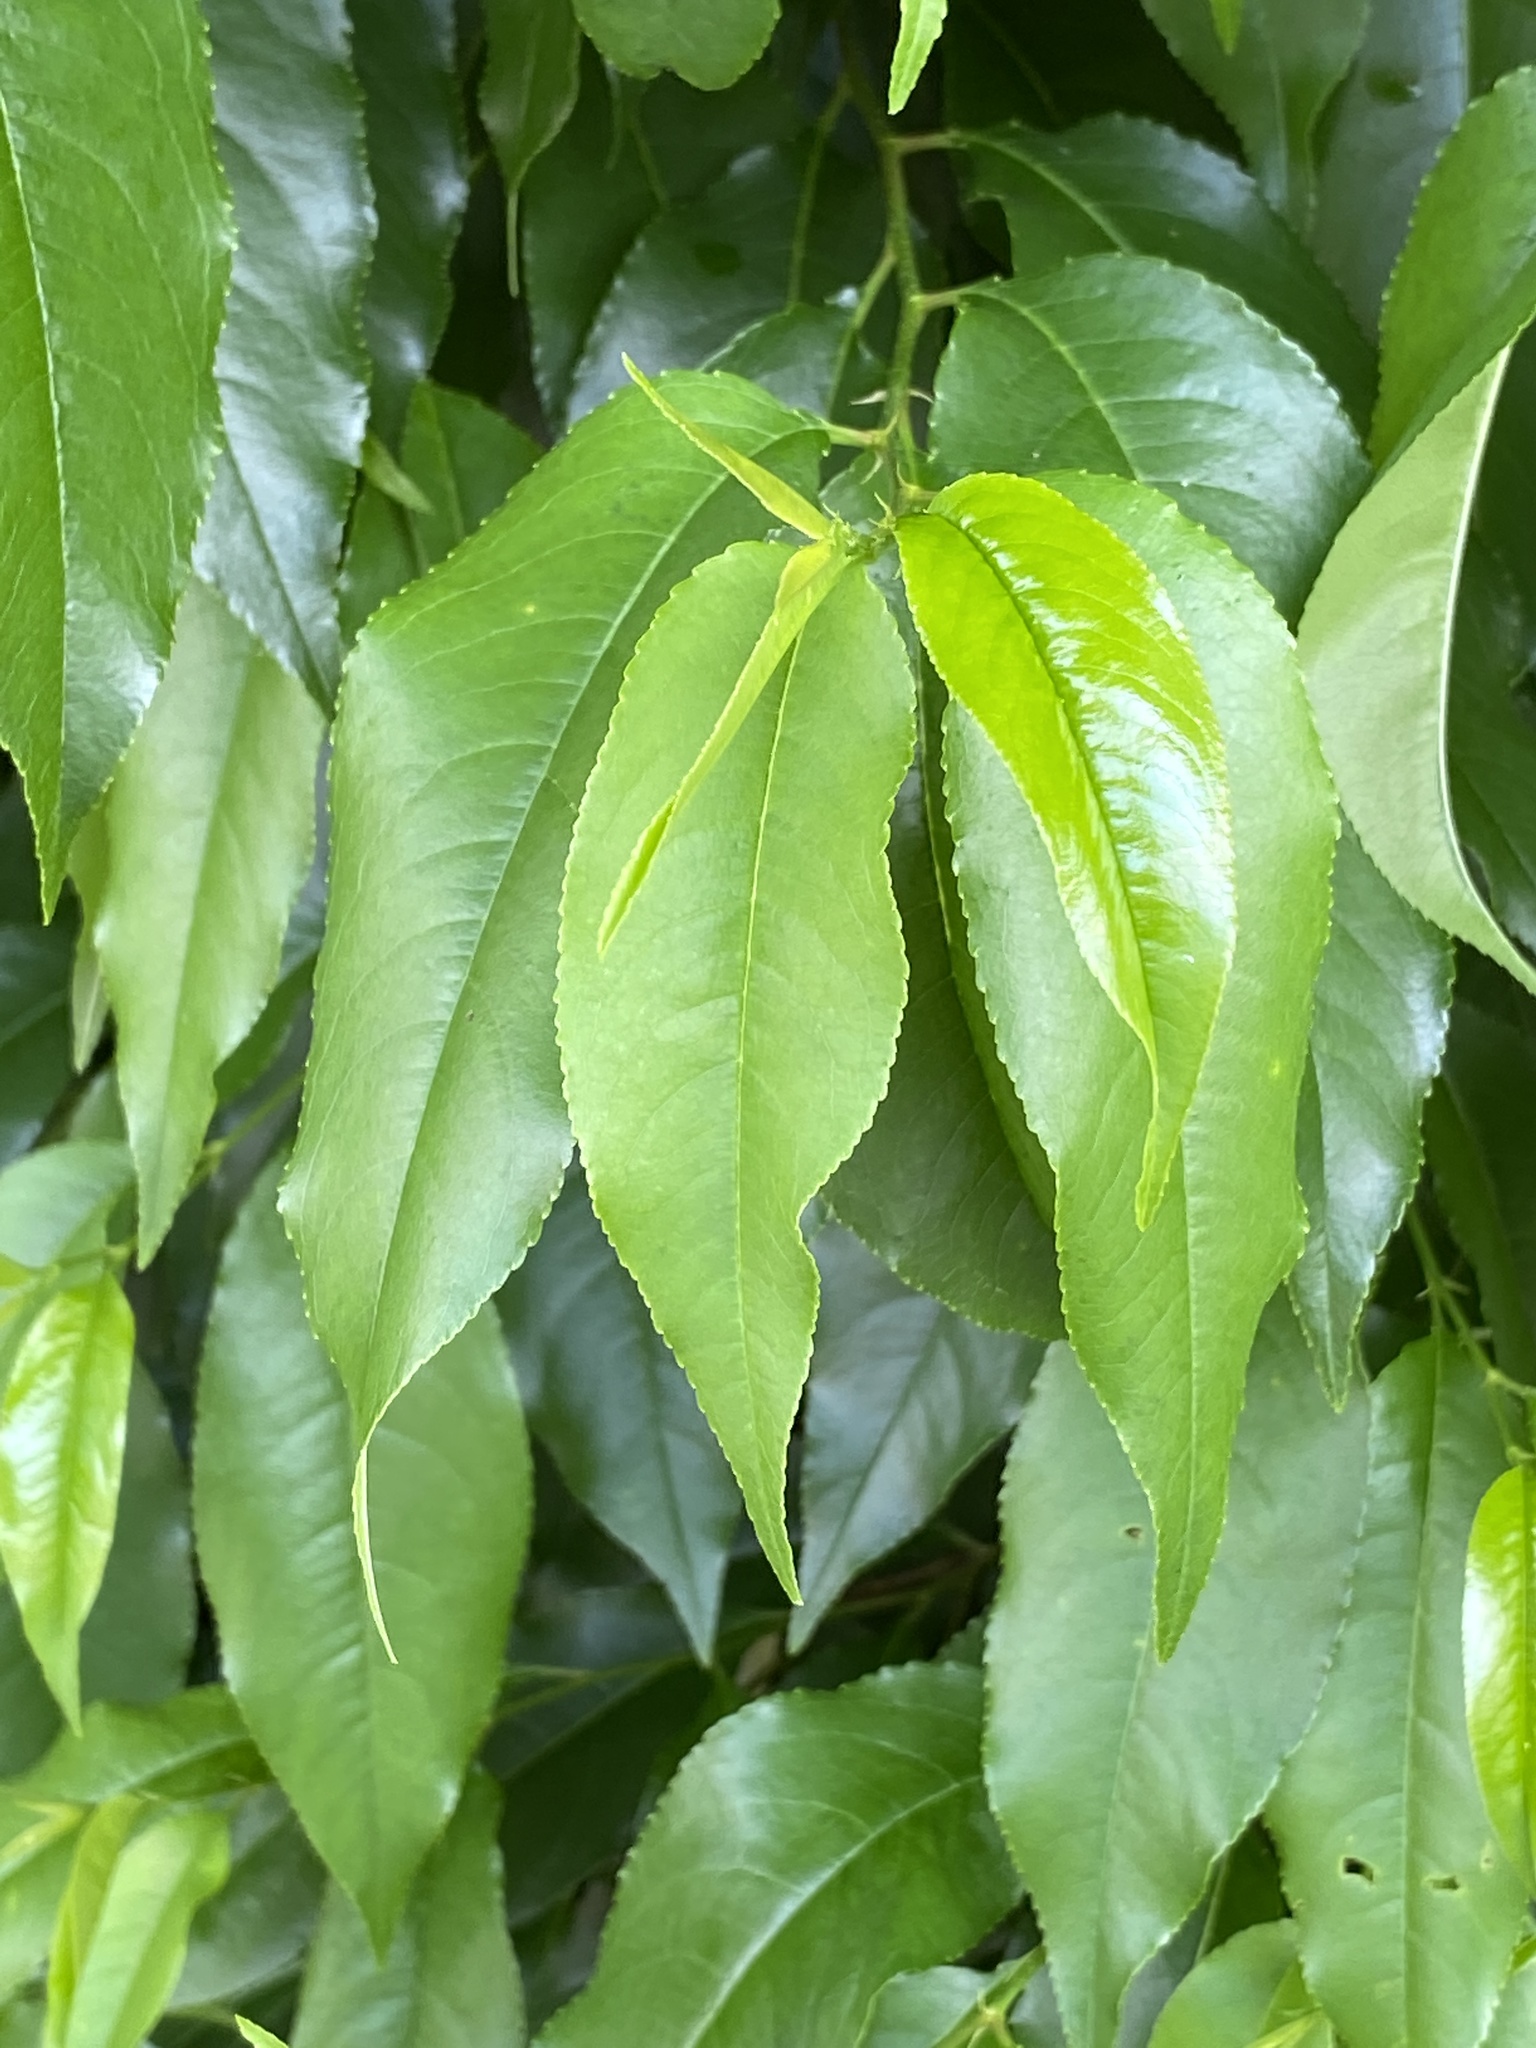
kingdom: Plantae
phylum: Tracheophyta
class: Magnoliopsida
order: Rosales
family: Rosaceae
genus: Prunus
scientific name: Prunus serotina
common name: Black cherry
